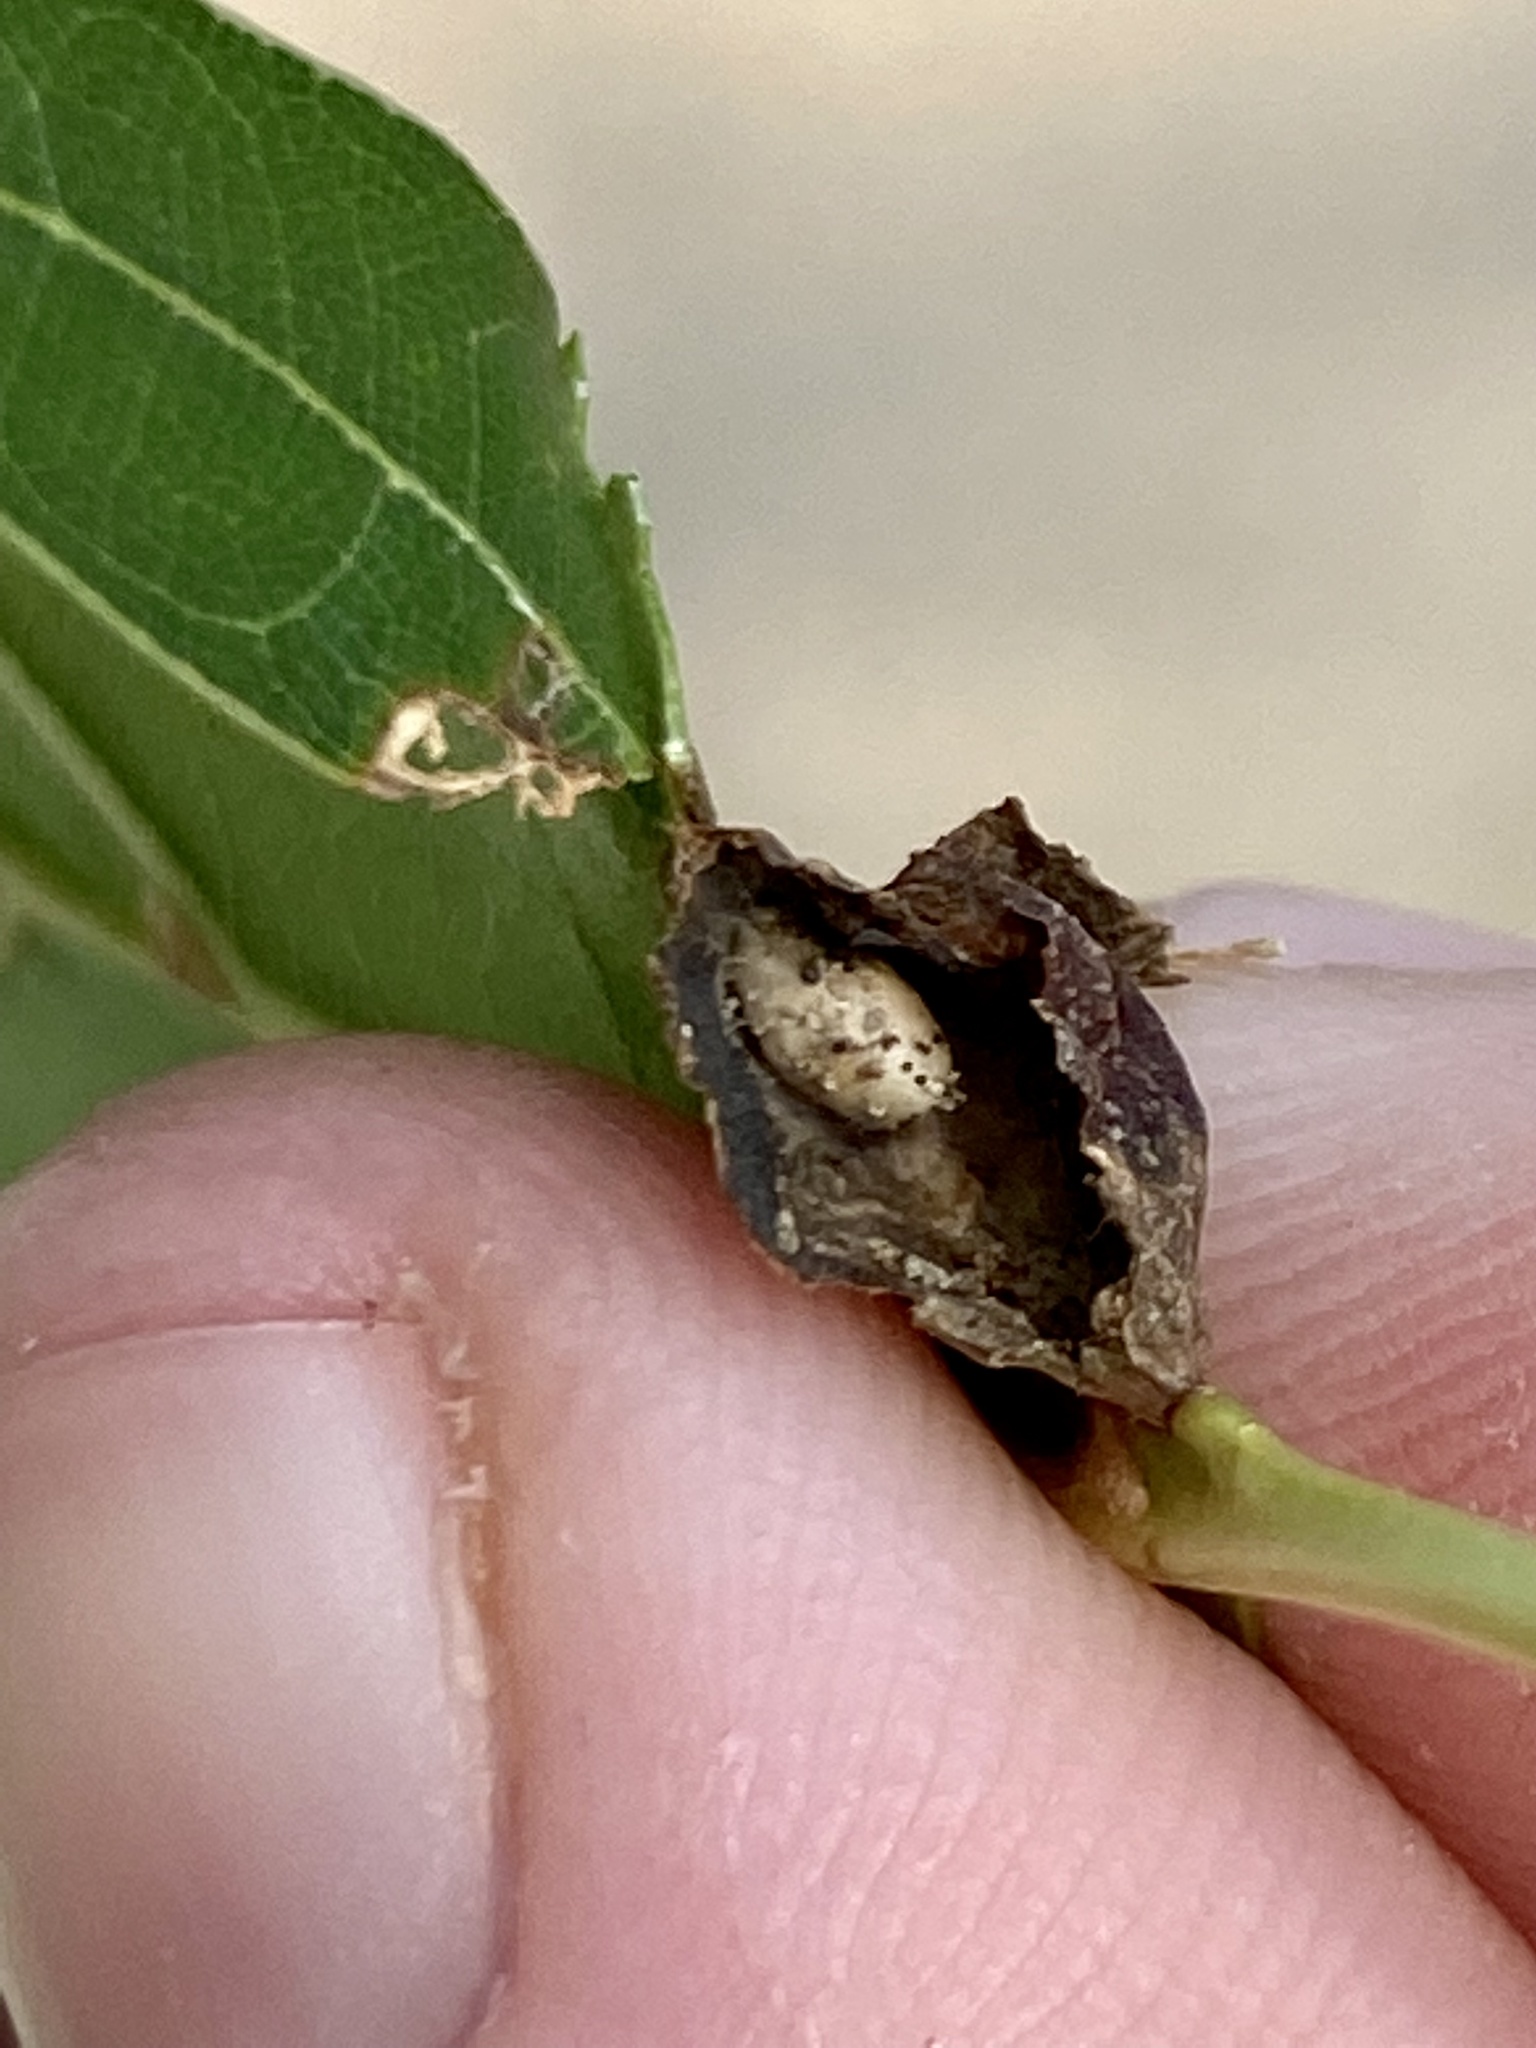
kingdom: Animalia
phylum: Arthropoda
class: Insecta
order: Hymenoptera
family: Cynipidae
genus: Dryocosmus
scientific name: Dryocosmus
